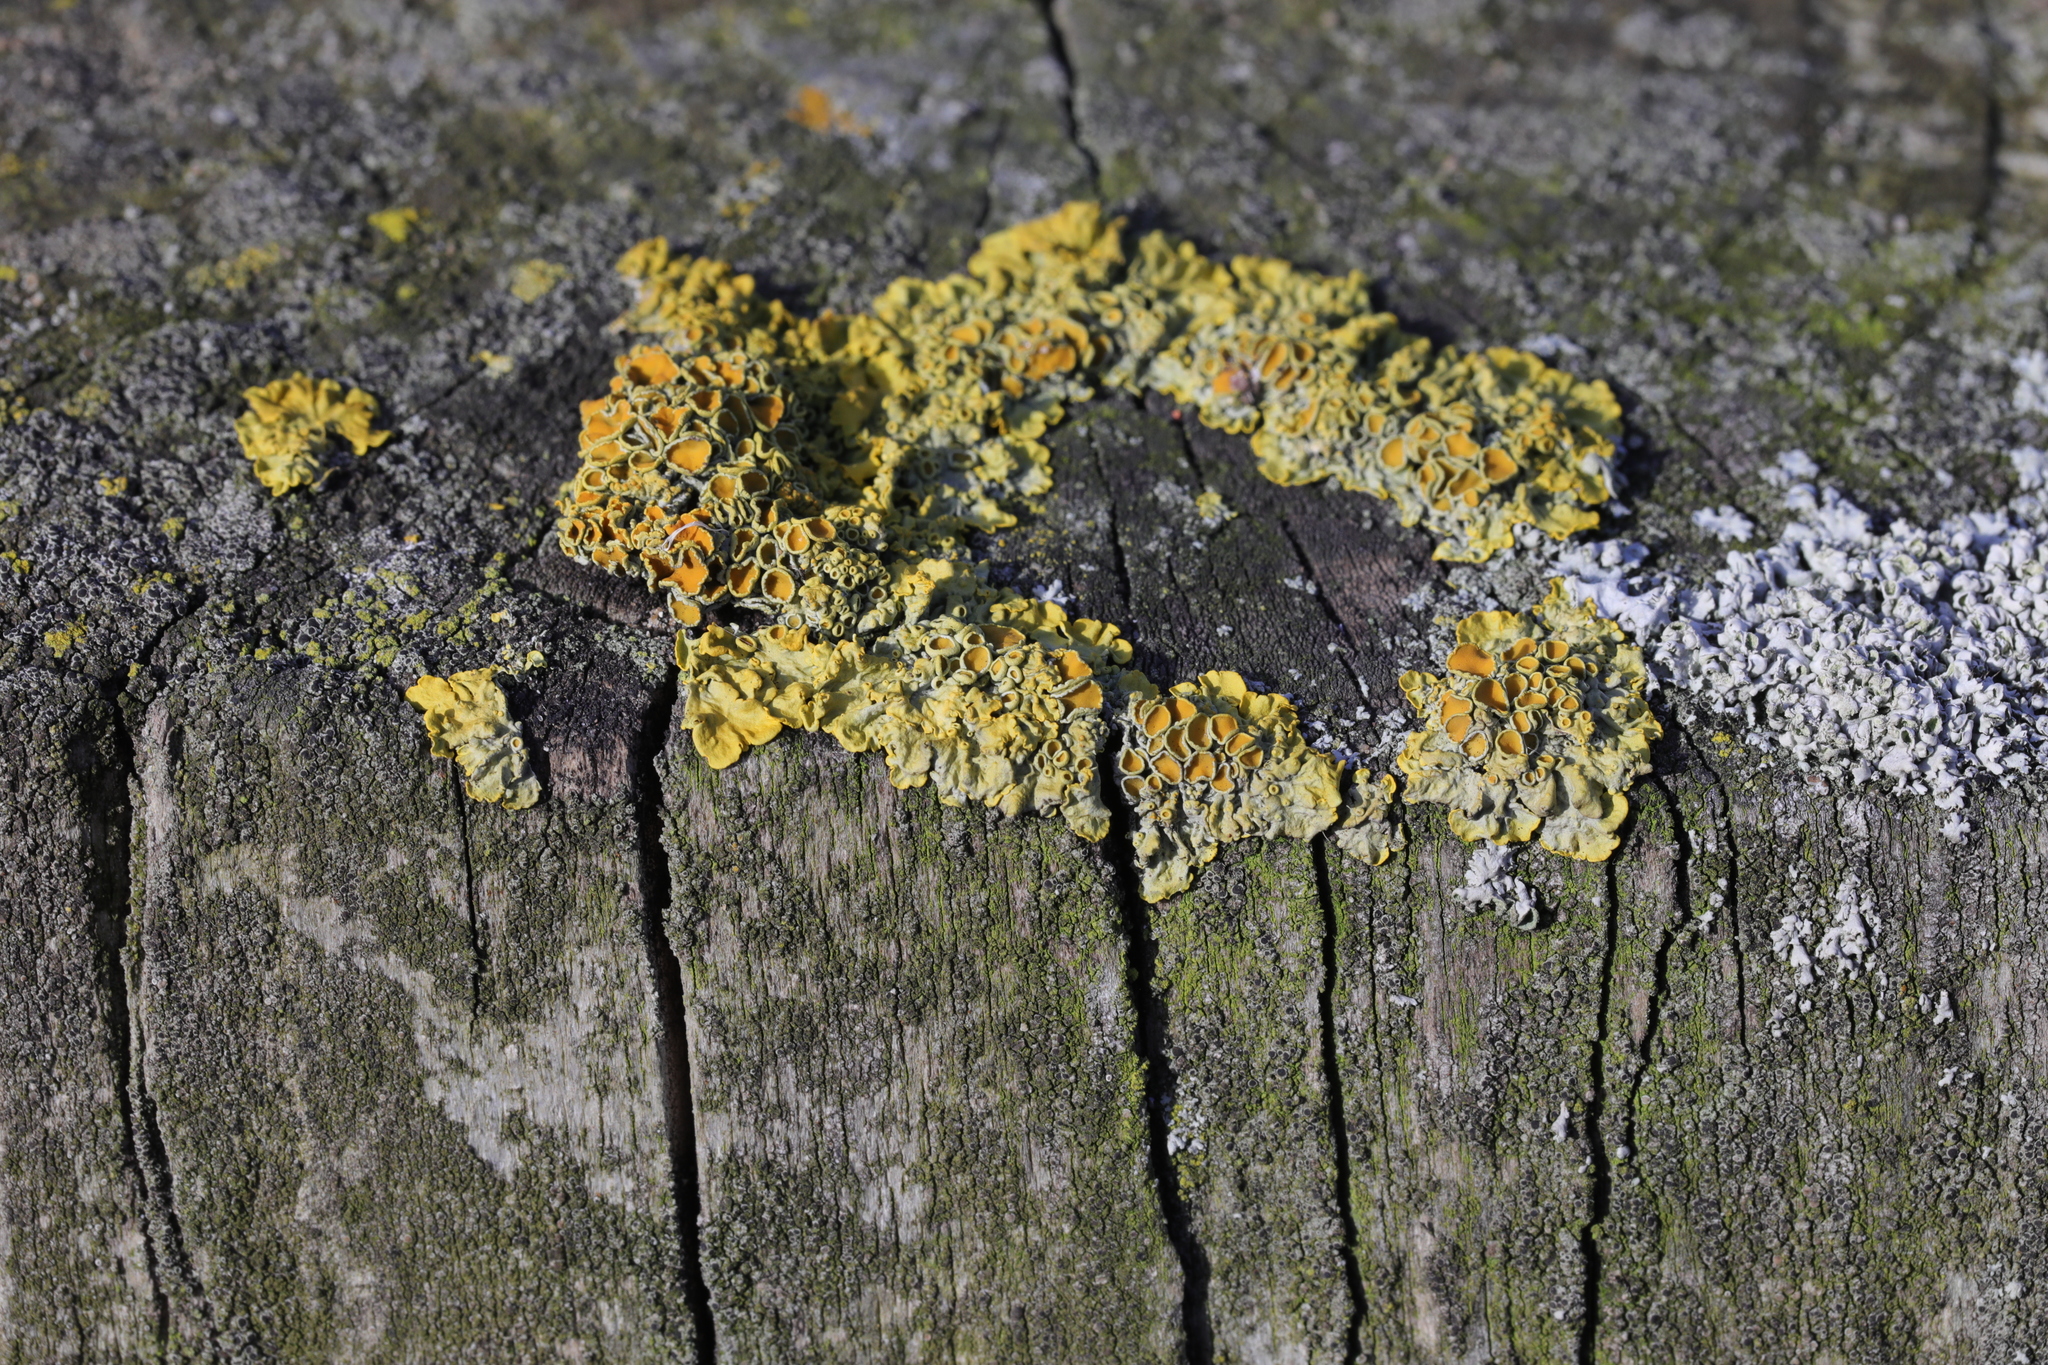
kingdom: Fungi
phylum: Ascomycota
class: Lecanoromycetes
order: Teloschistales
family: Teloschistaceae
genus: Xanthoria
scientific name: Xanthoria parietina
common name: Common orange lichen
